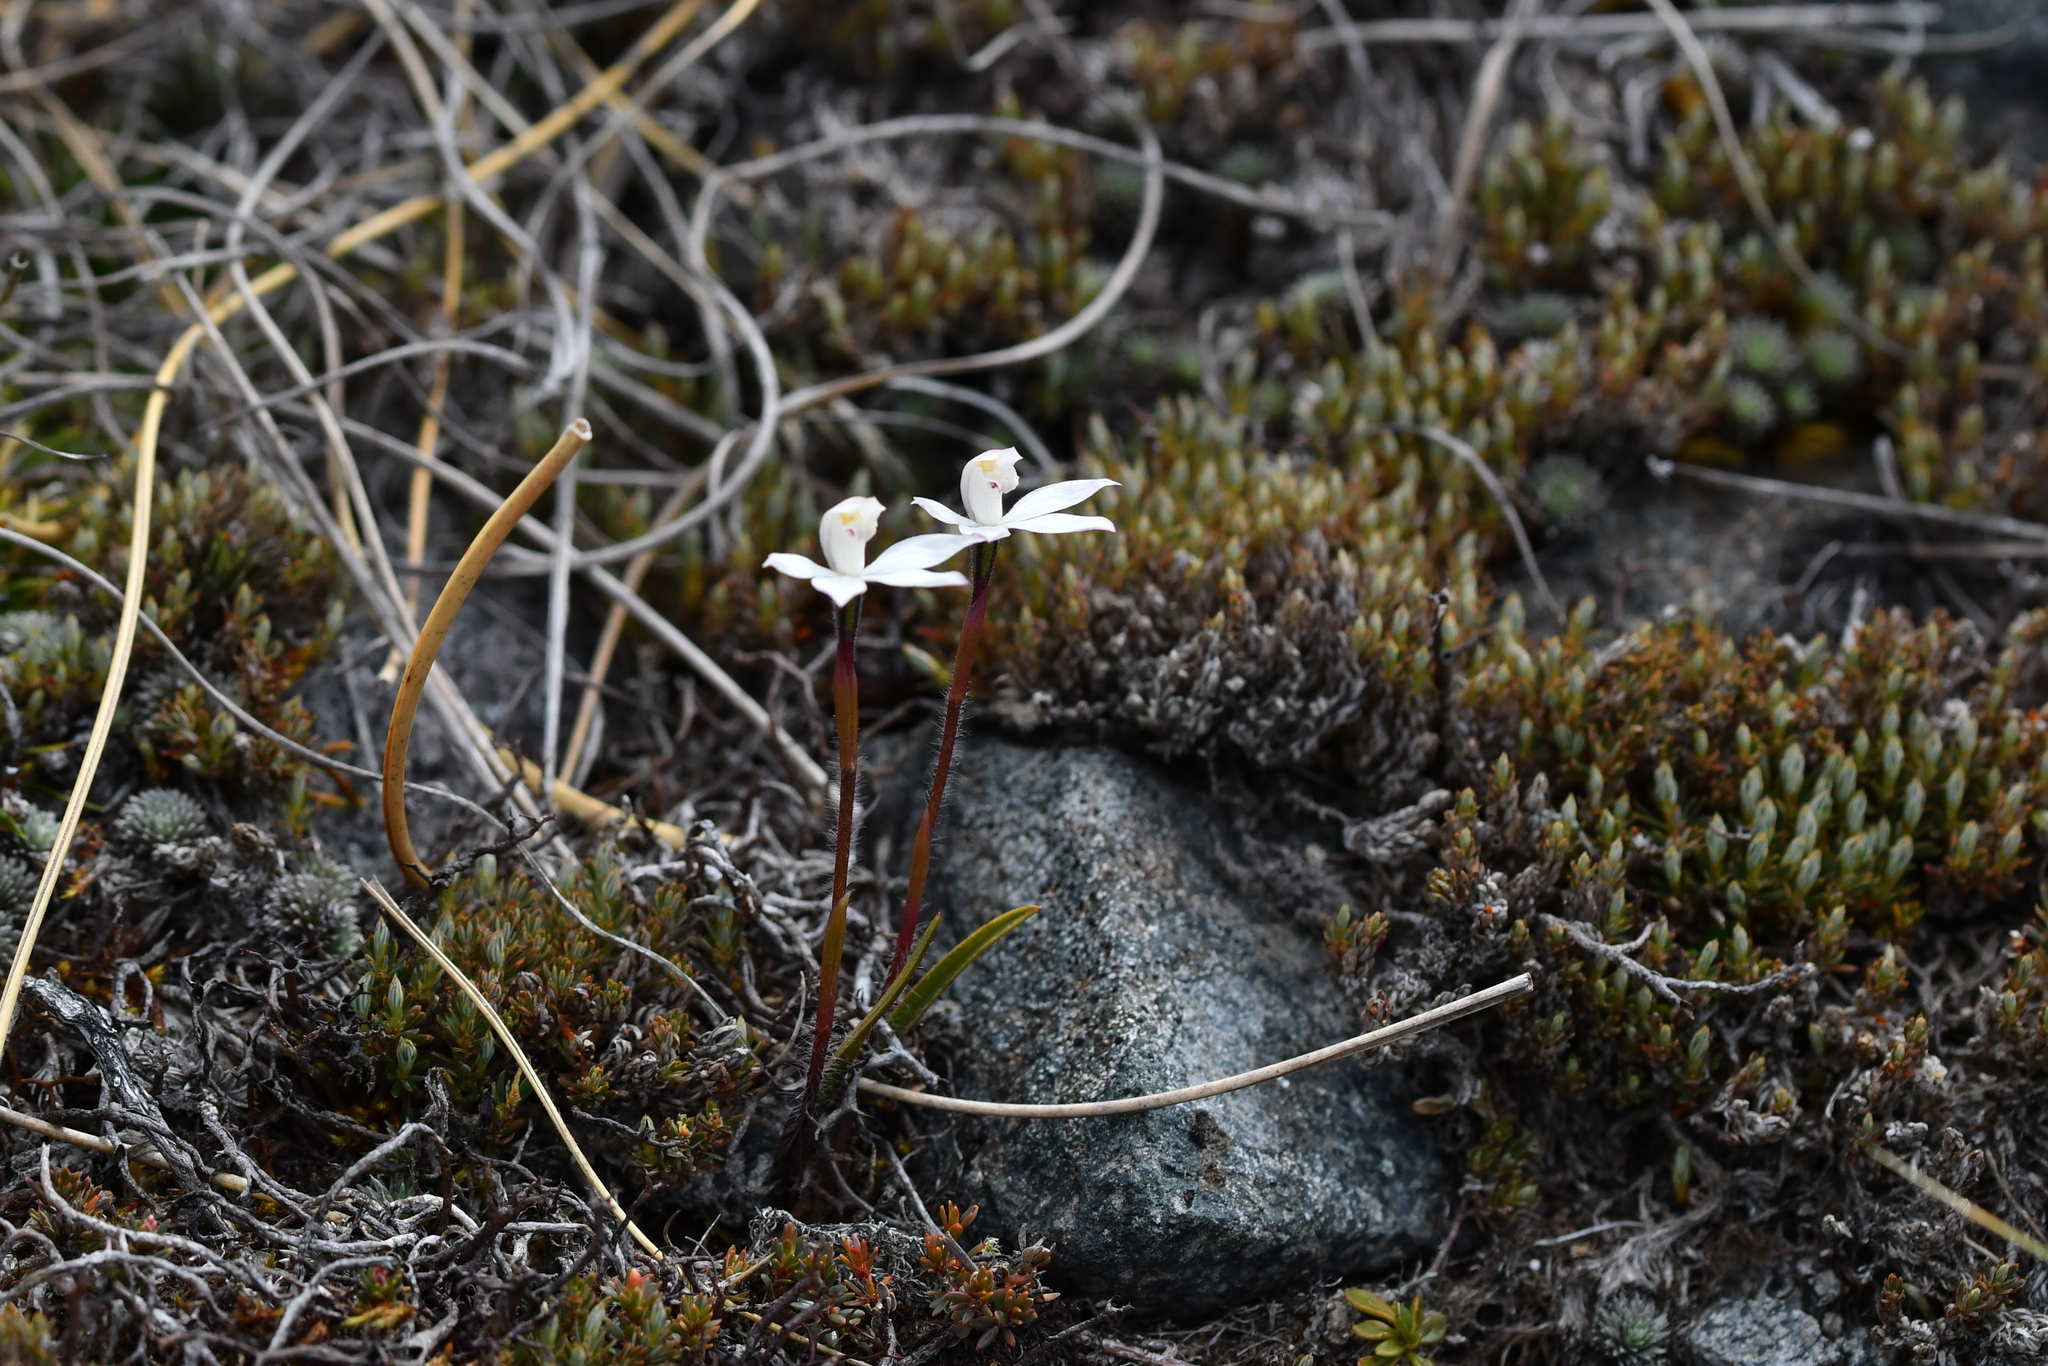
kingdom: Plantae
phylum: Tracheophyta
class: Liliopsida
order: Asparagales
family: Orchidaceae
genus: Caladenia
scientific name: Caladenia lyallii
